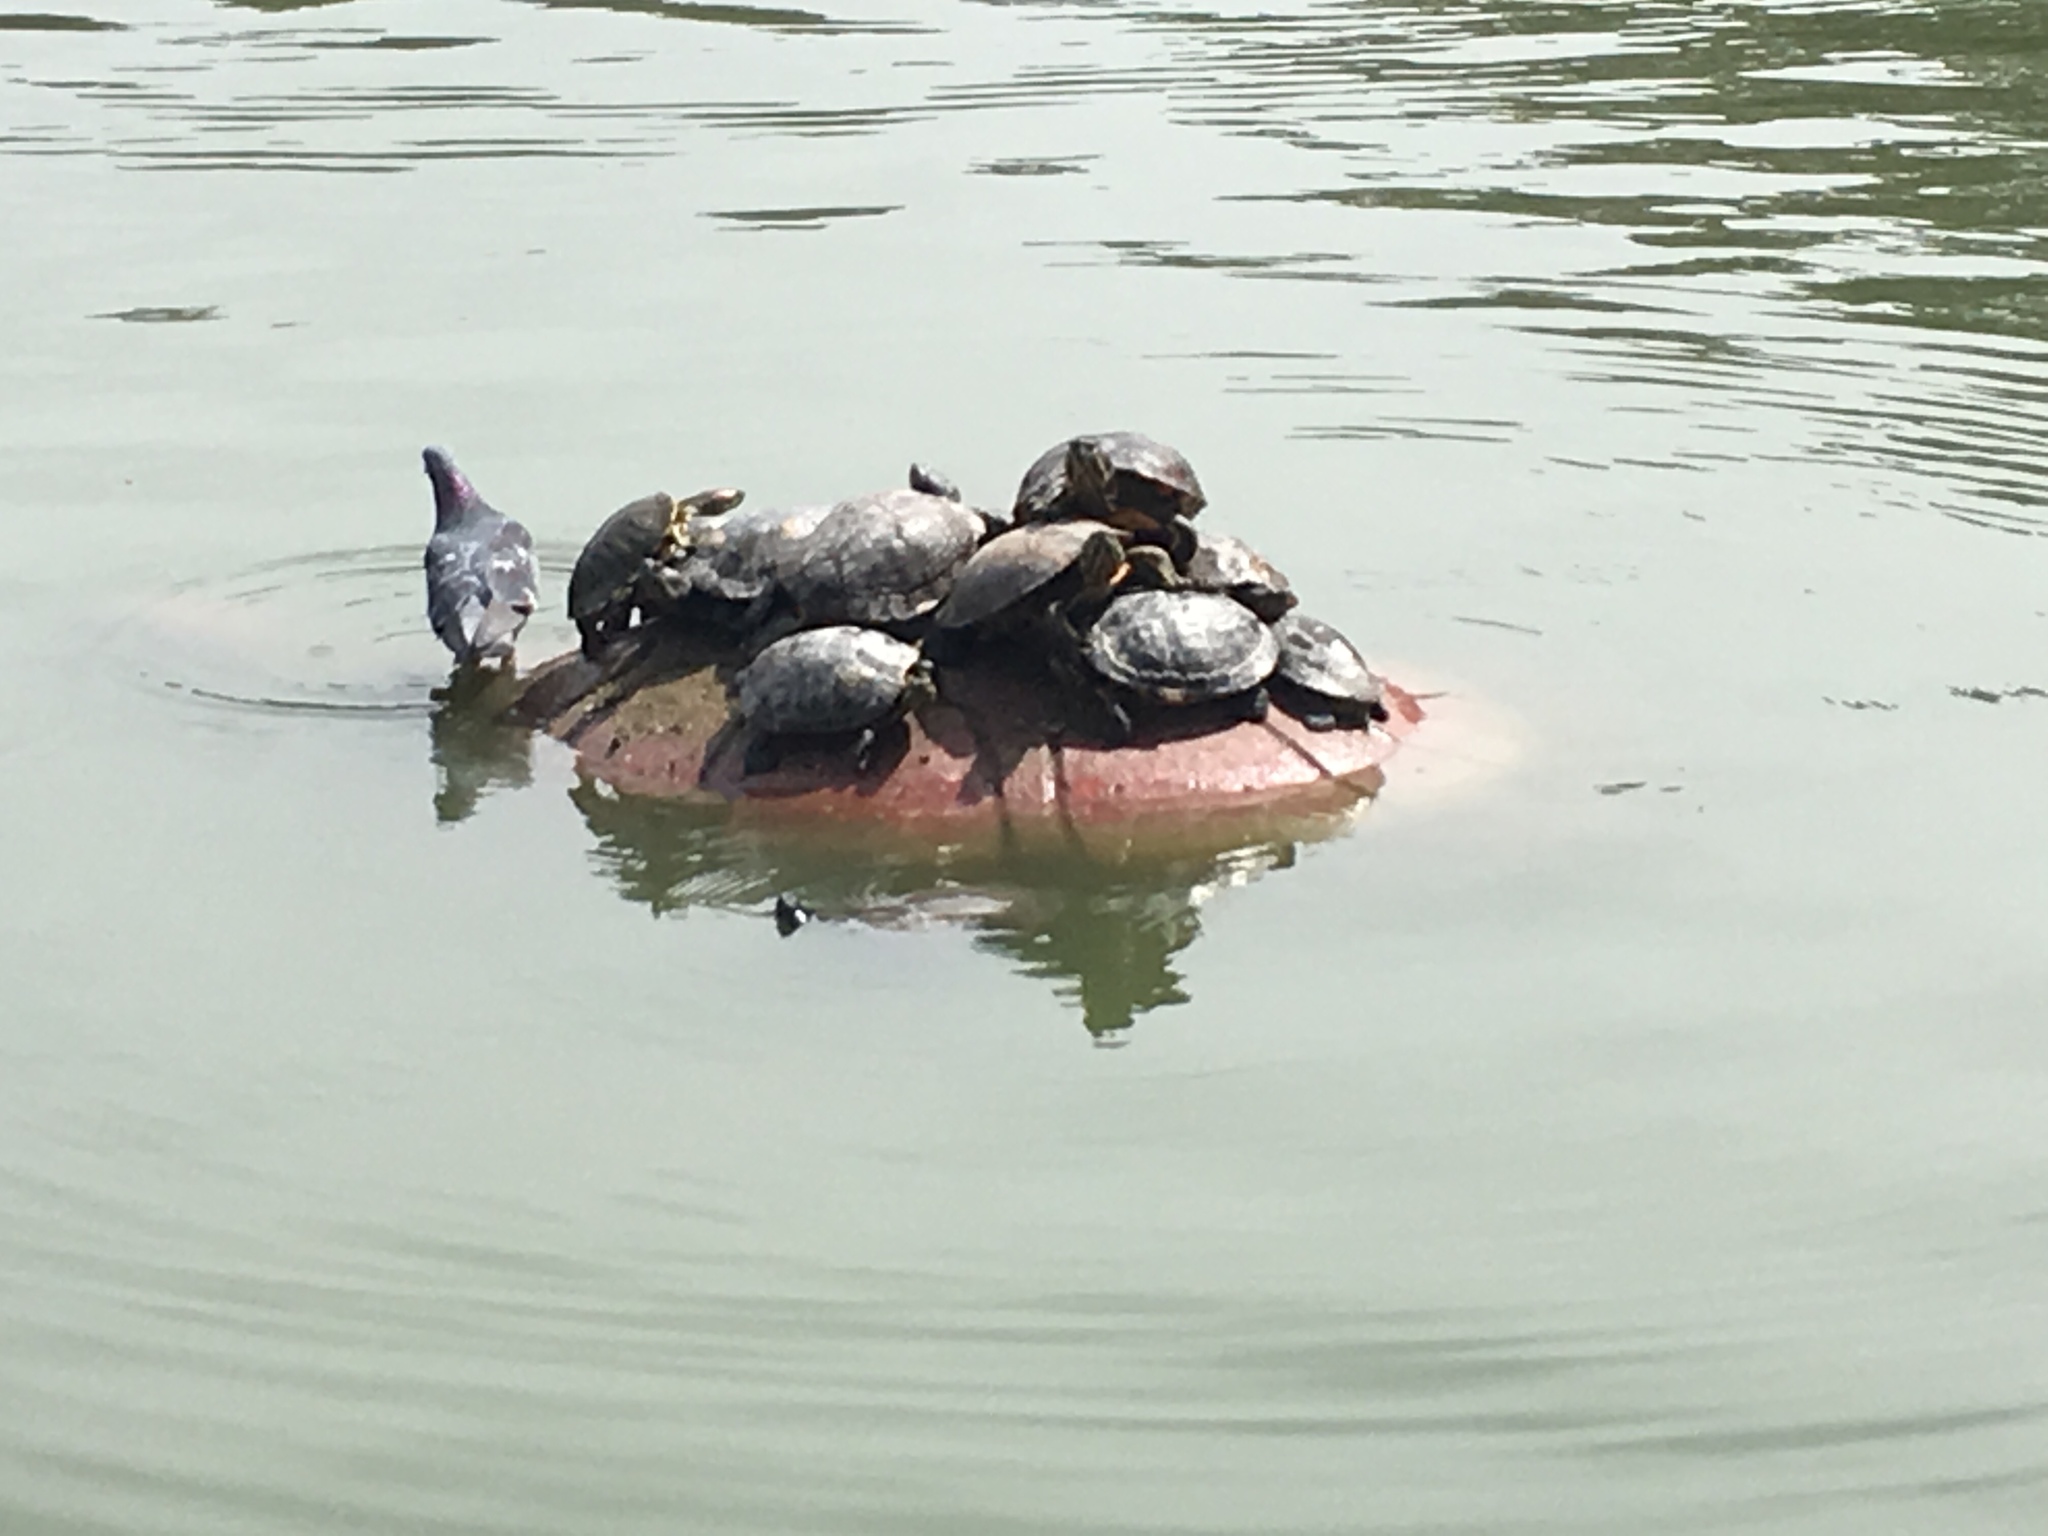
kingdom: Animalia
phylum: Chordata
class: Testudines
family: Emydidae
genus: Trachemys
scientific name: Trachemys scripta
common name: Slider
